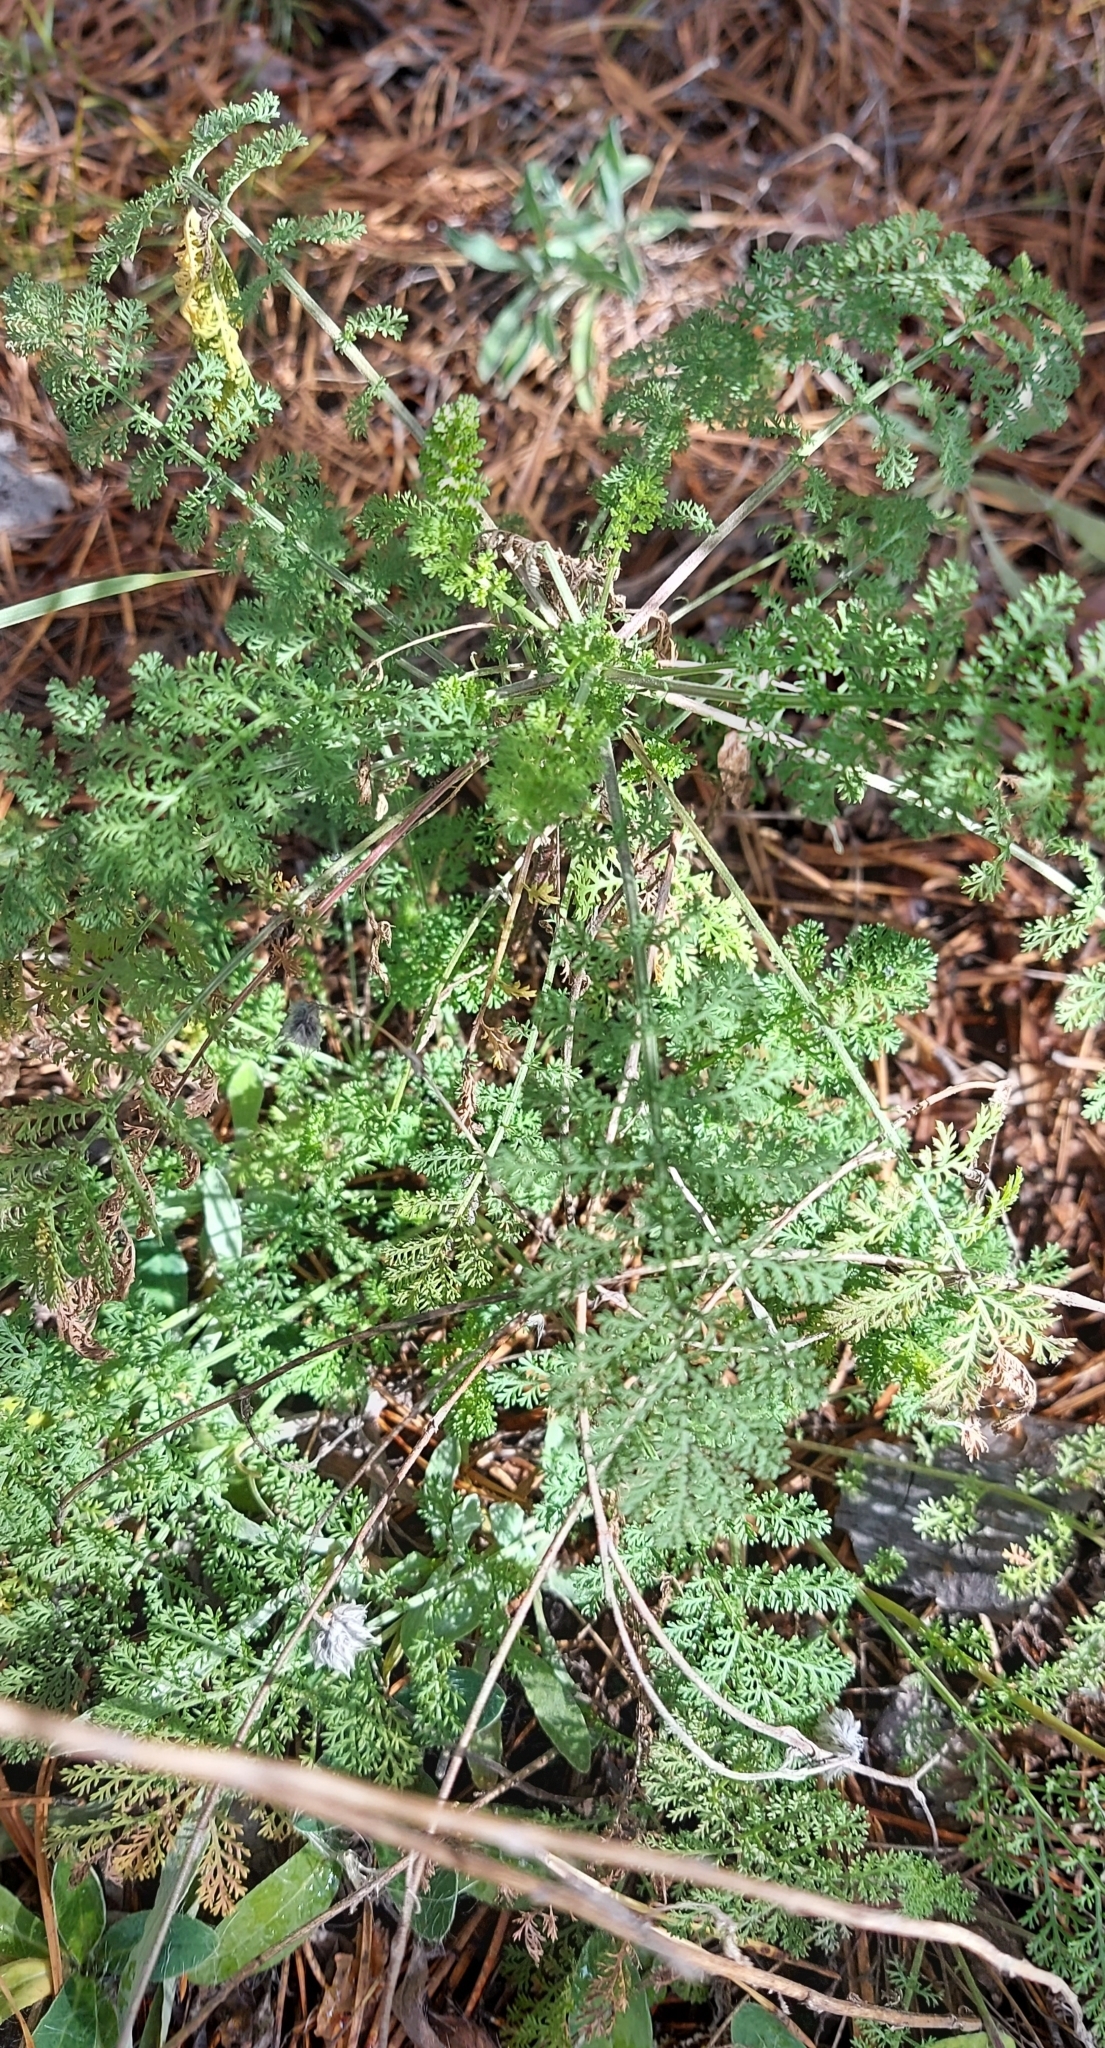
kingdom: Plantae
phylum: Tracheophyta
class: Magnoliopsida
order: Asterales
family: Asteraceae
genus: Achillea
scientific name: Achillea nobilis
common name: Noble yarrow
